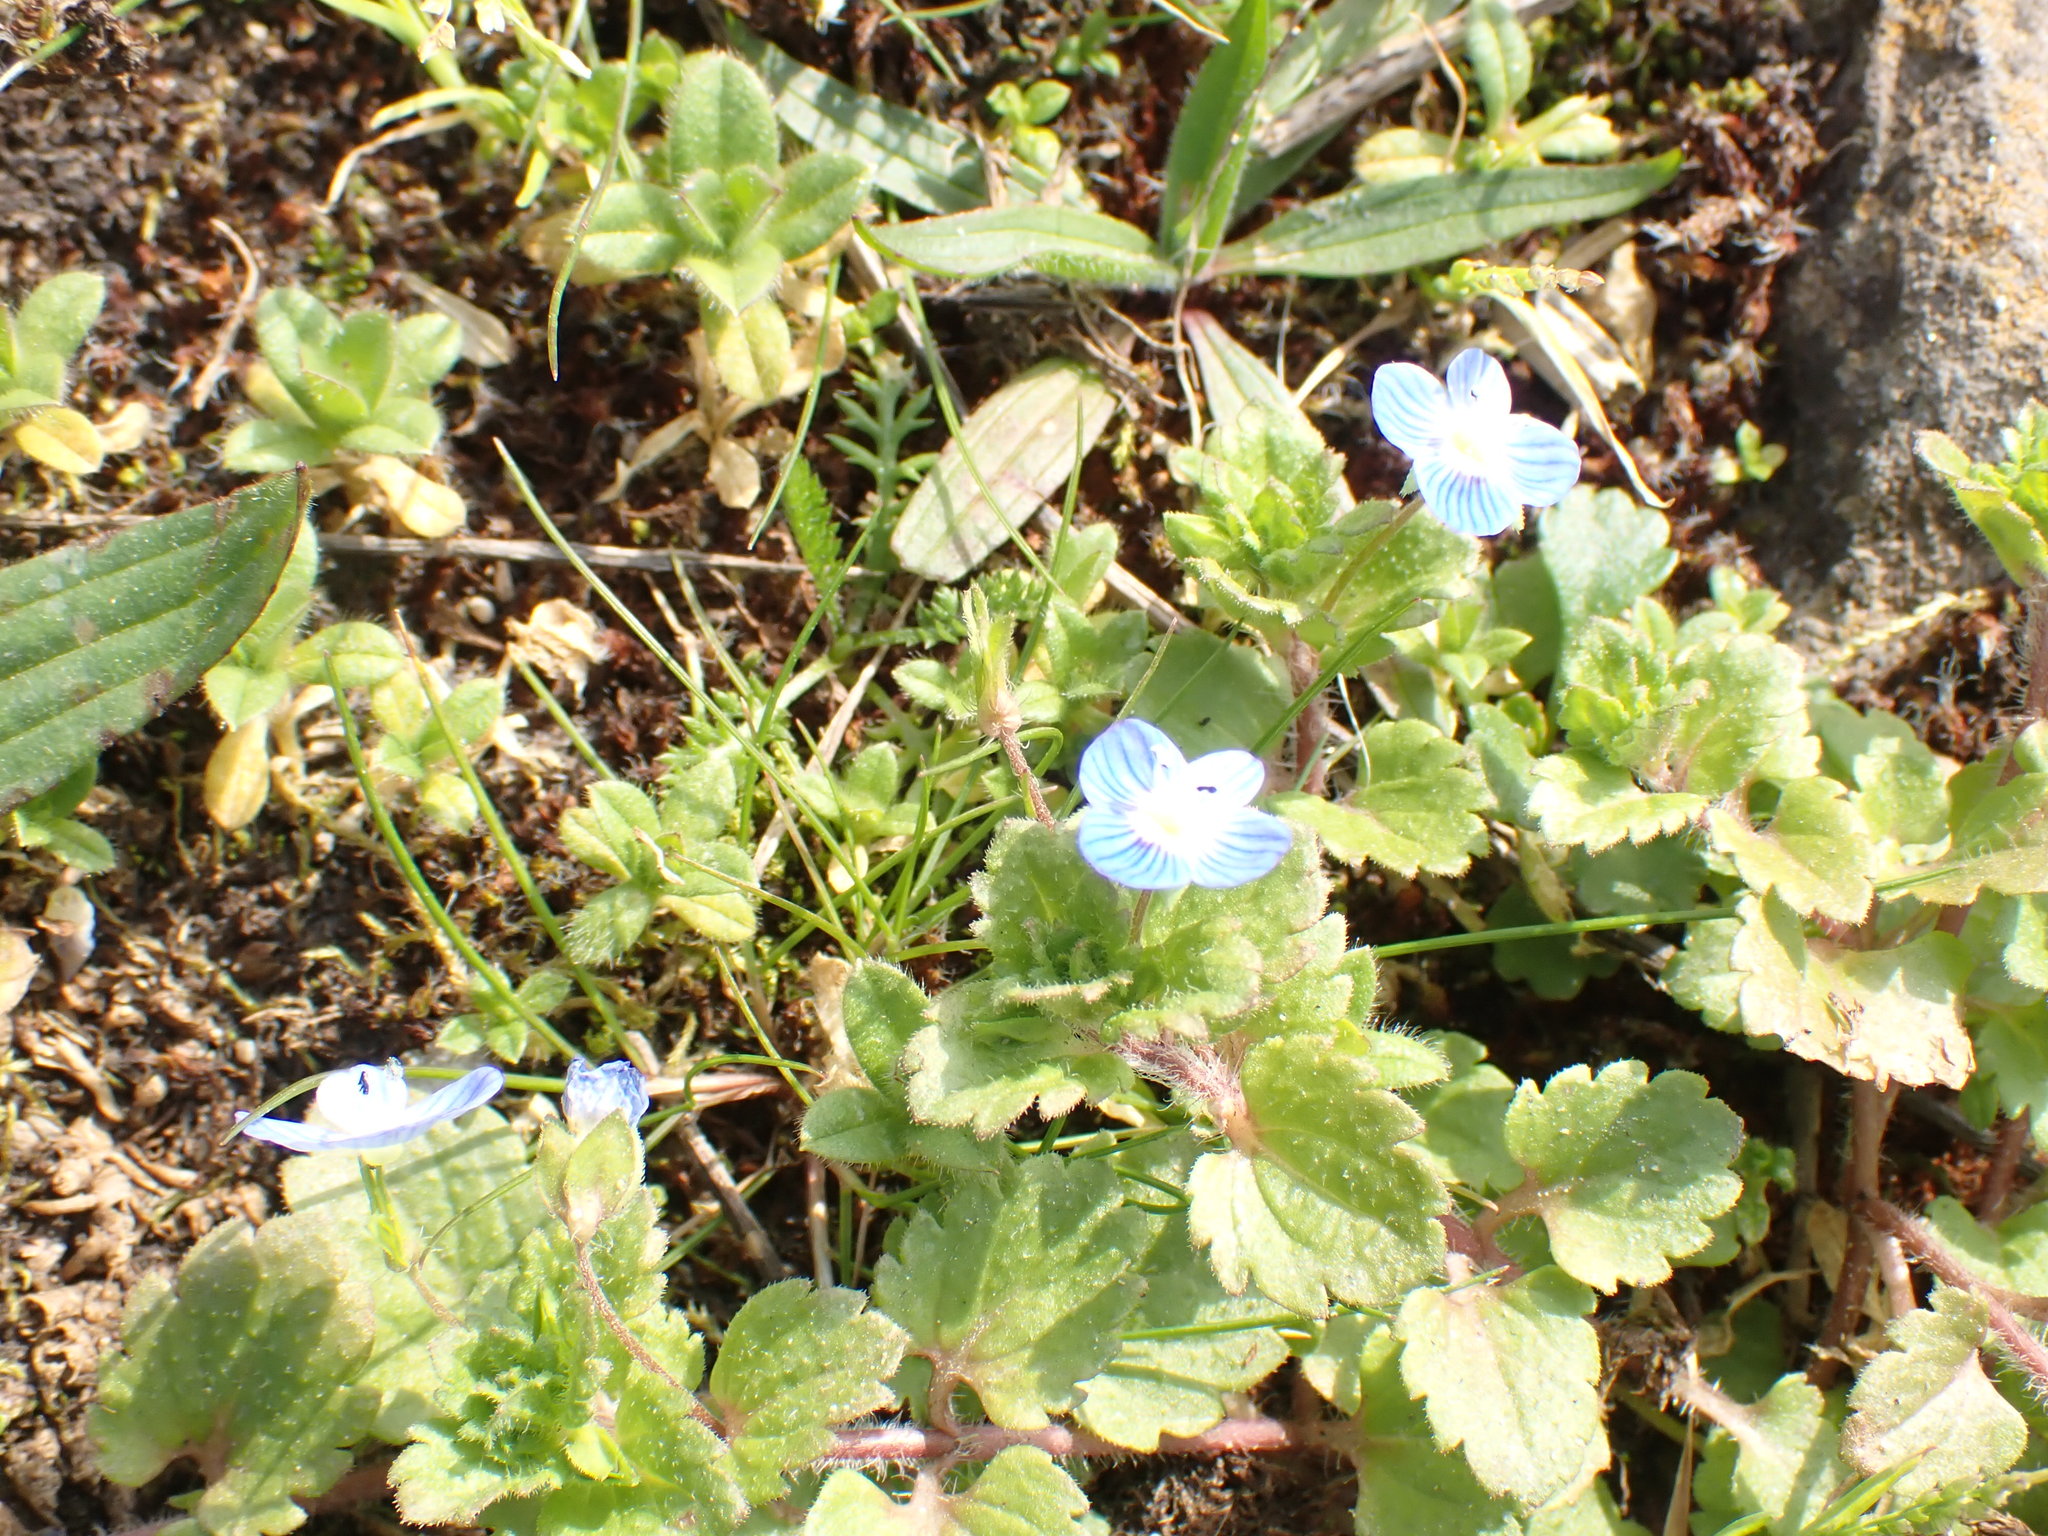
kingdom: Plantae
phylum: Tracheophyta
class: Magnoliopsida
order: Lamiales
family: Plantaginaceae
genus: Veronica
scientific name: Veronica persica
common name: Common field-speedwell
